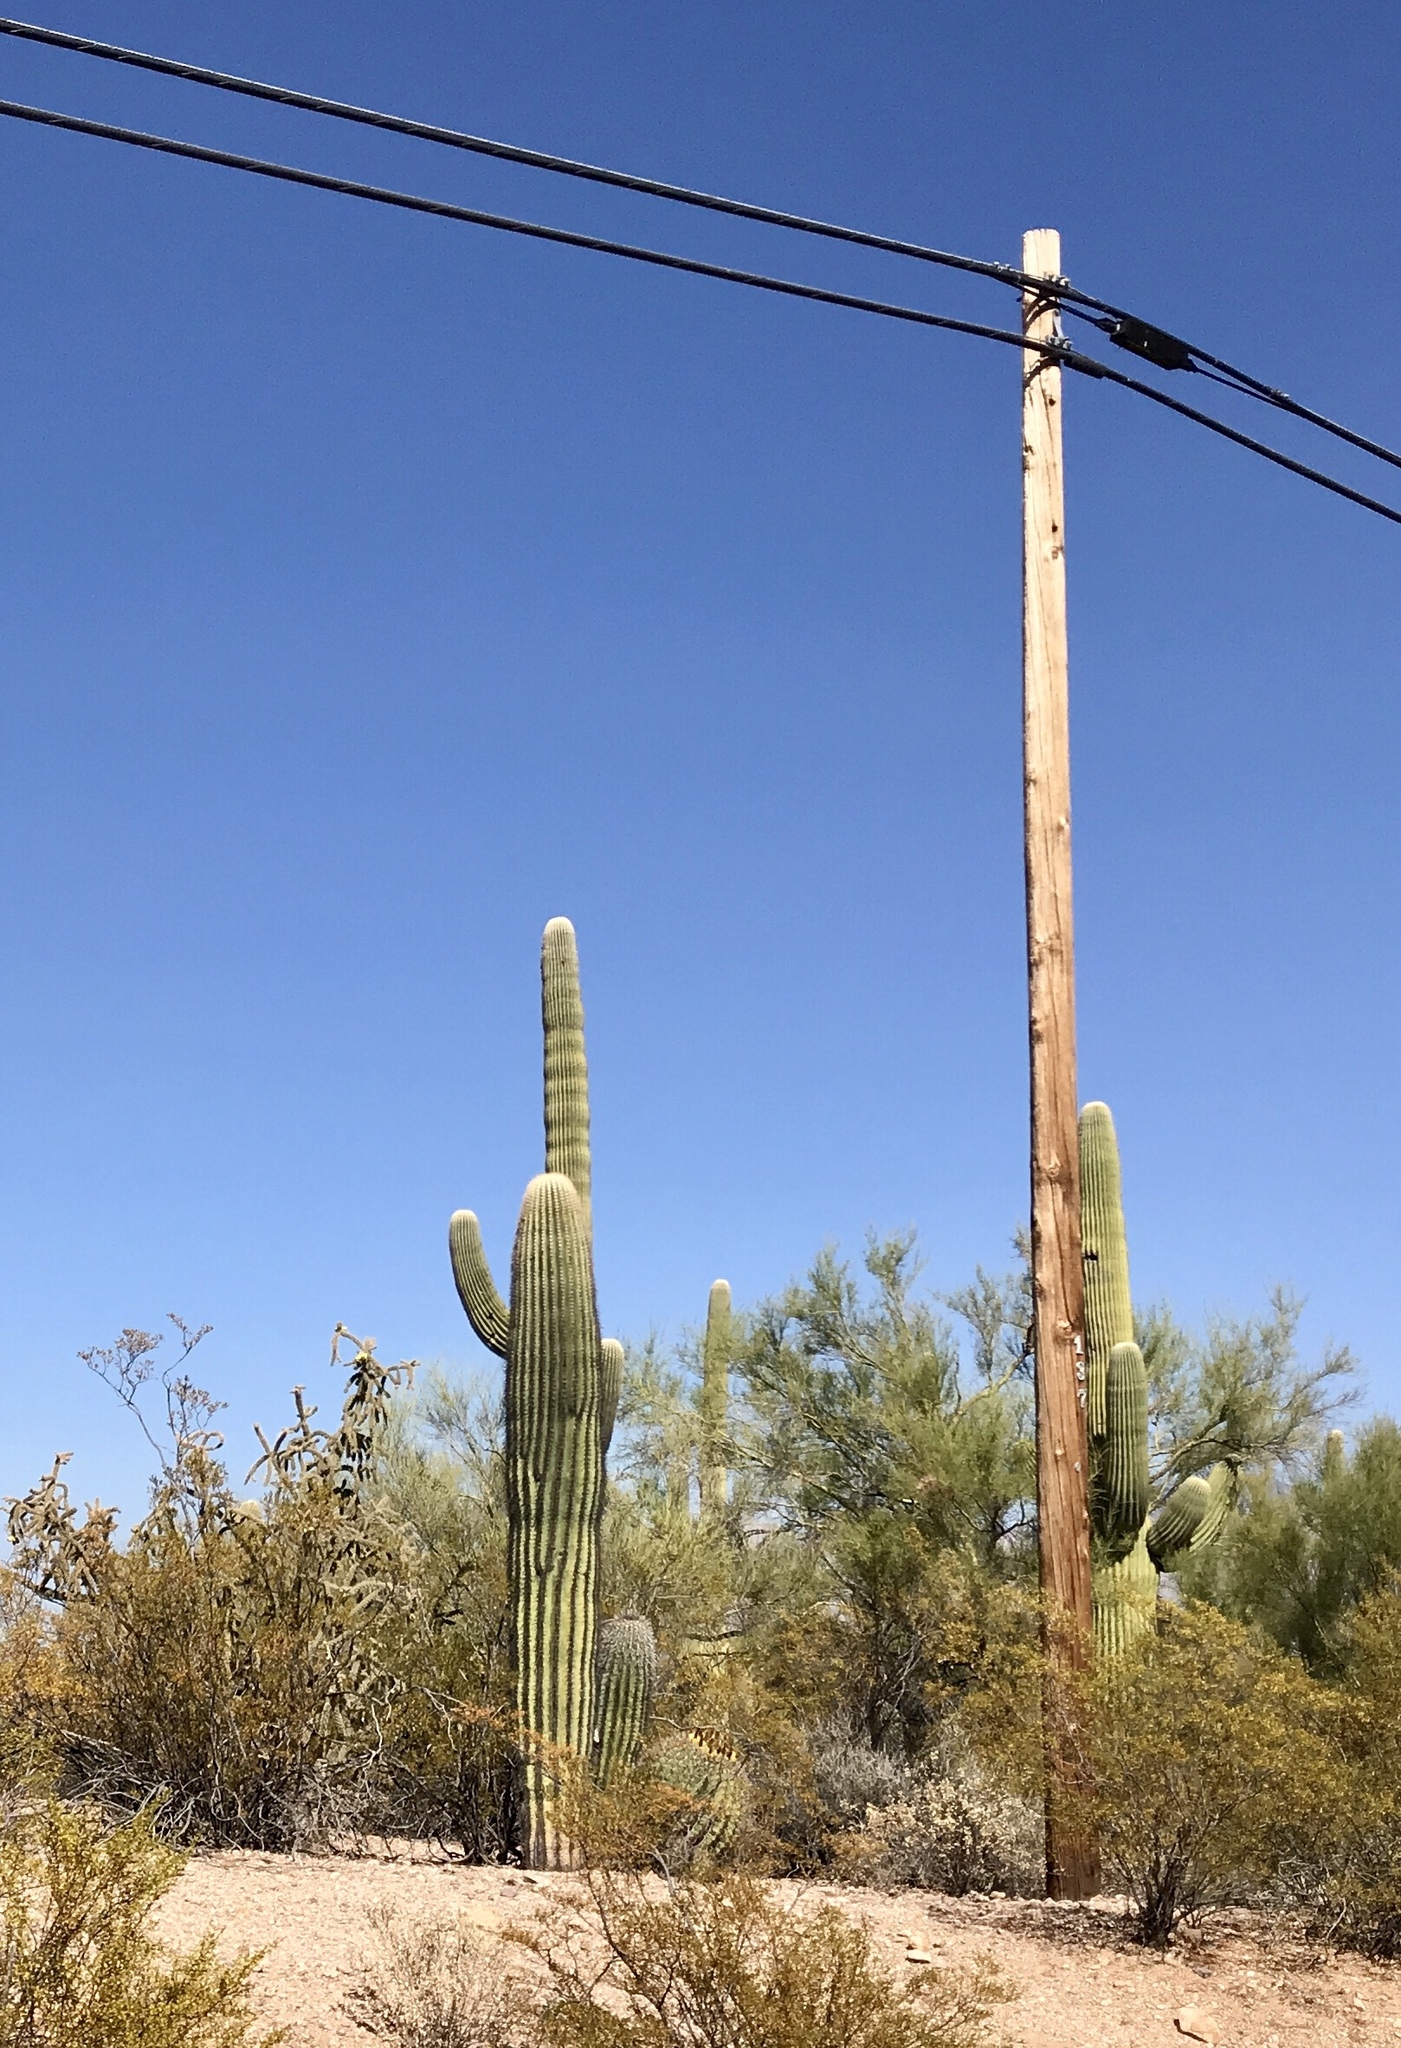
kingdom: Plantae
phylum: Tracheophyta
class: Magnoliopsida
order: Caryophyllales
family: Cactaceae
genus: Carnegiea
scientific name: Carnegiea gigantea
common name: Saguaro
